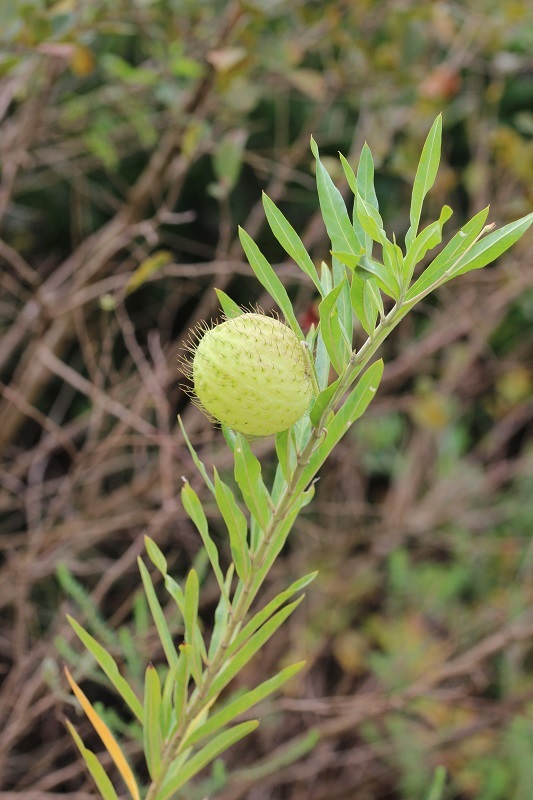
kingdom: Plantae
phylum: Tracheophyta
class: Magnoliopsida
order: Gentianales
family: Apocynaceae
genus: Gomphocarpus
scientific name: Gomphocarpus physocarpus
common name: Balloon cotton bush
